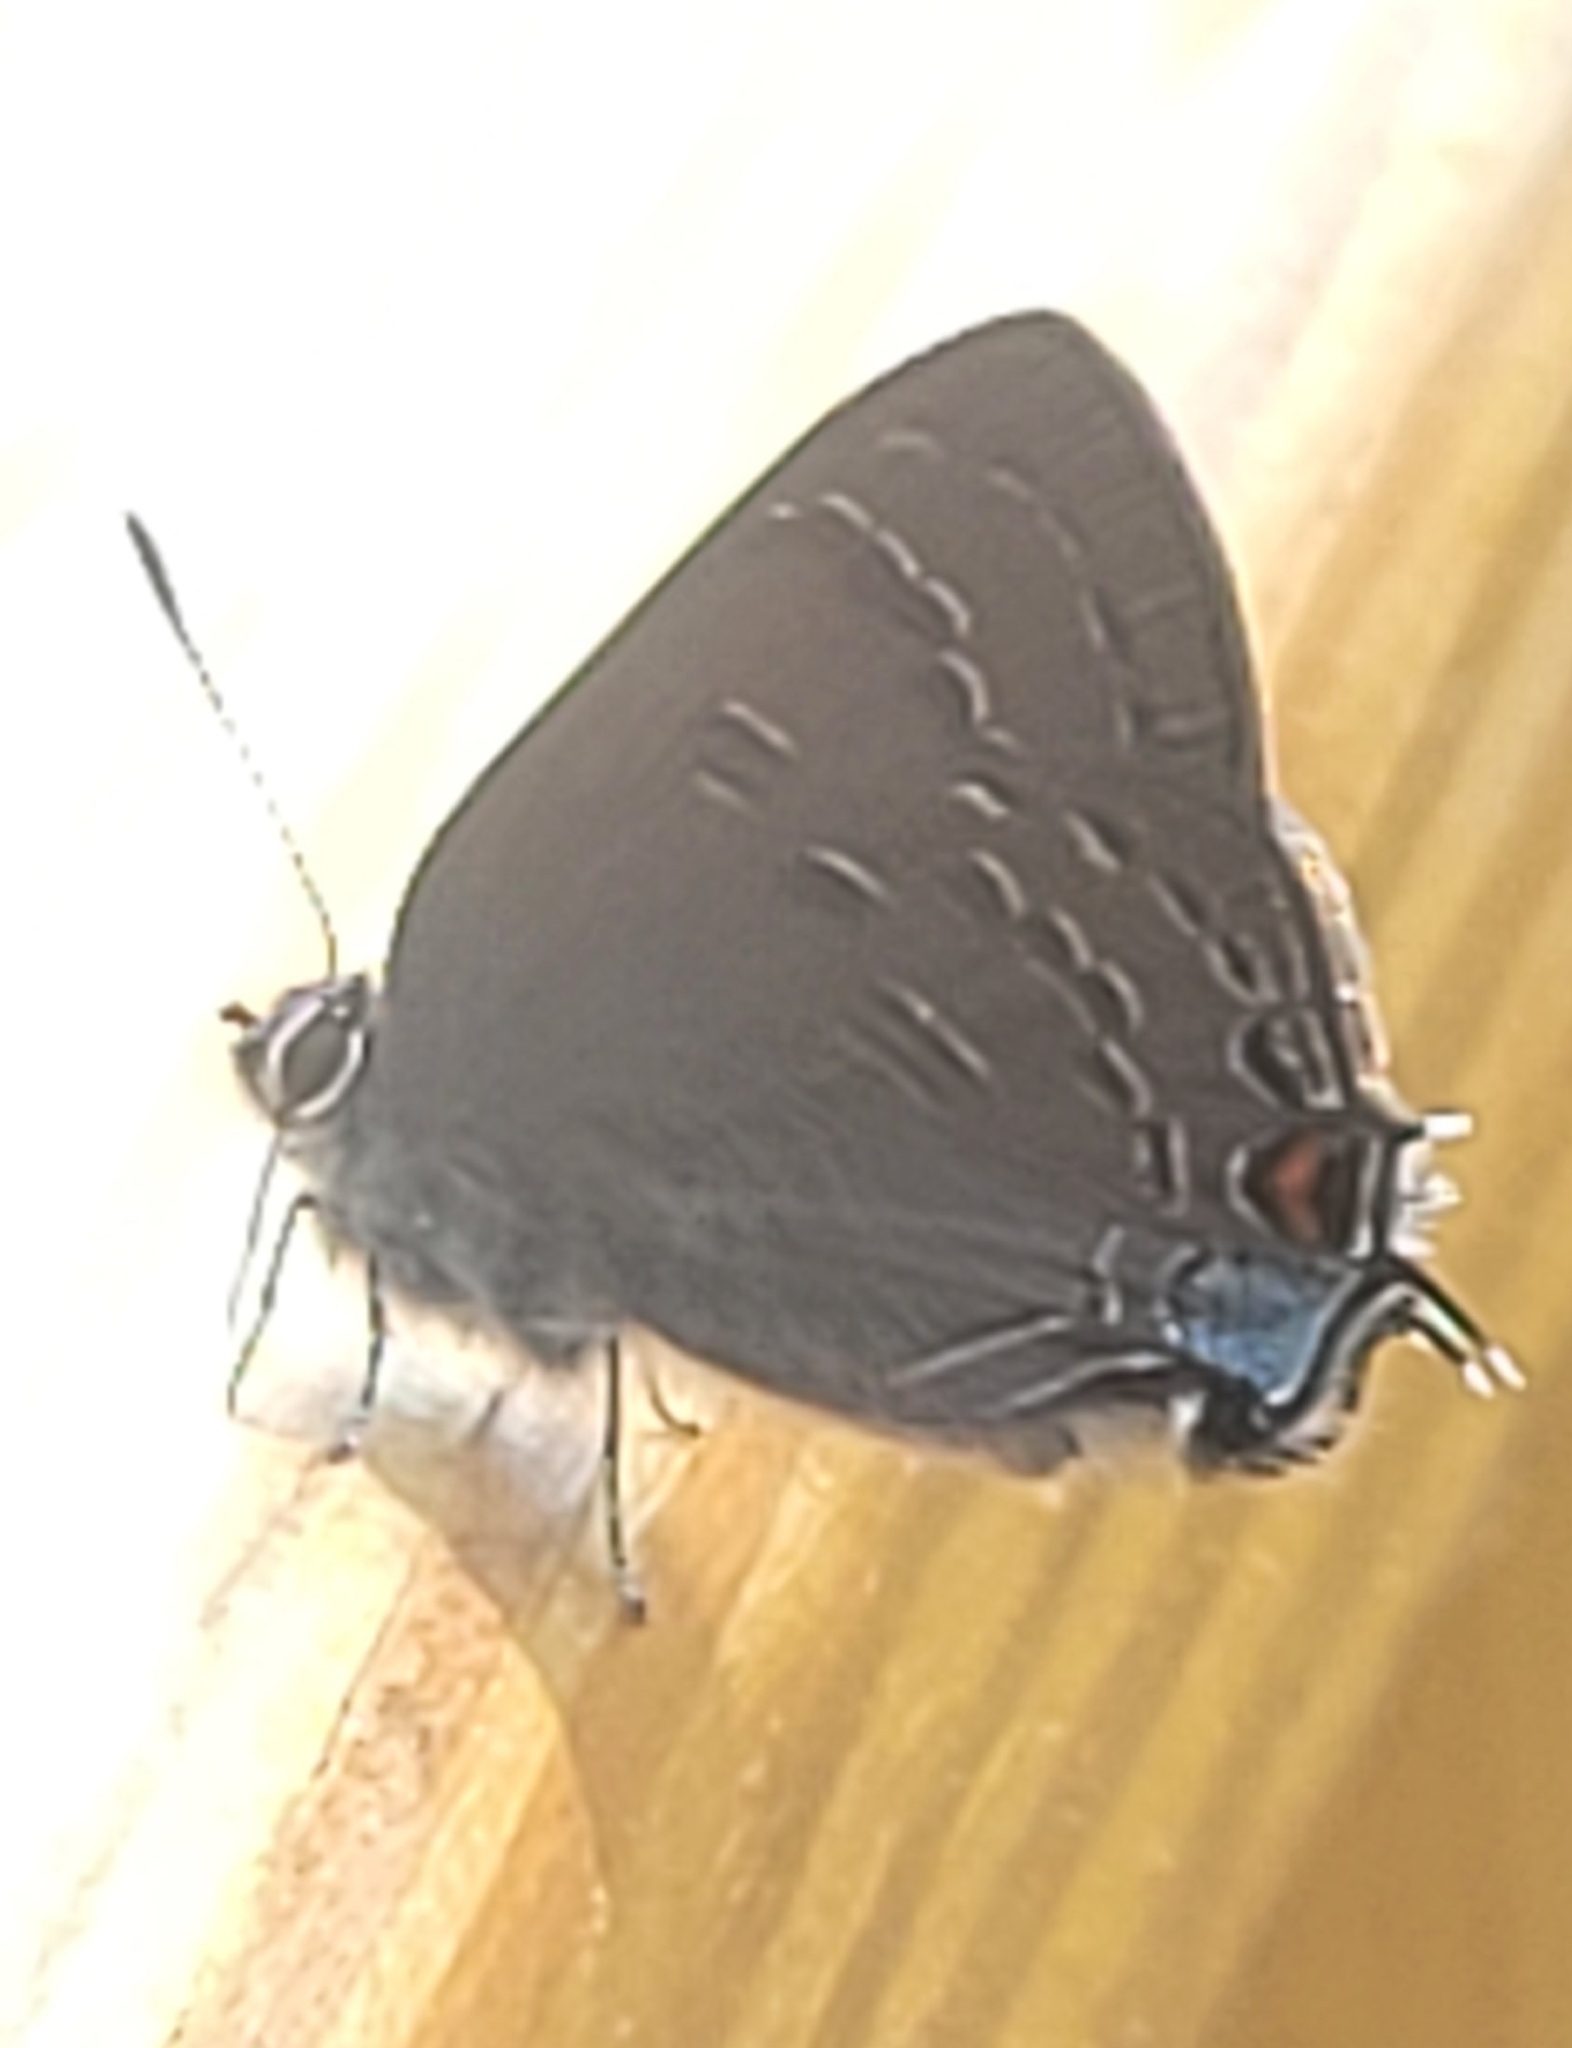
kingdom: Animalia
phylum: Arthropoda
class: Insecta
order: Lepidoptera
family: Lycaenidae
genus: Satyrium
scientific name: Satyrium calanus
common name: Banded hairstreak
